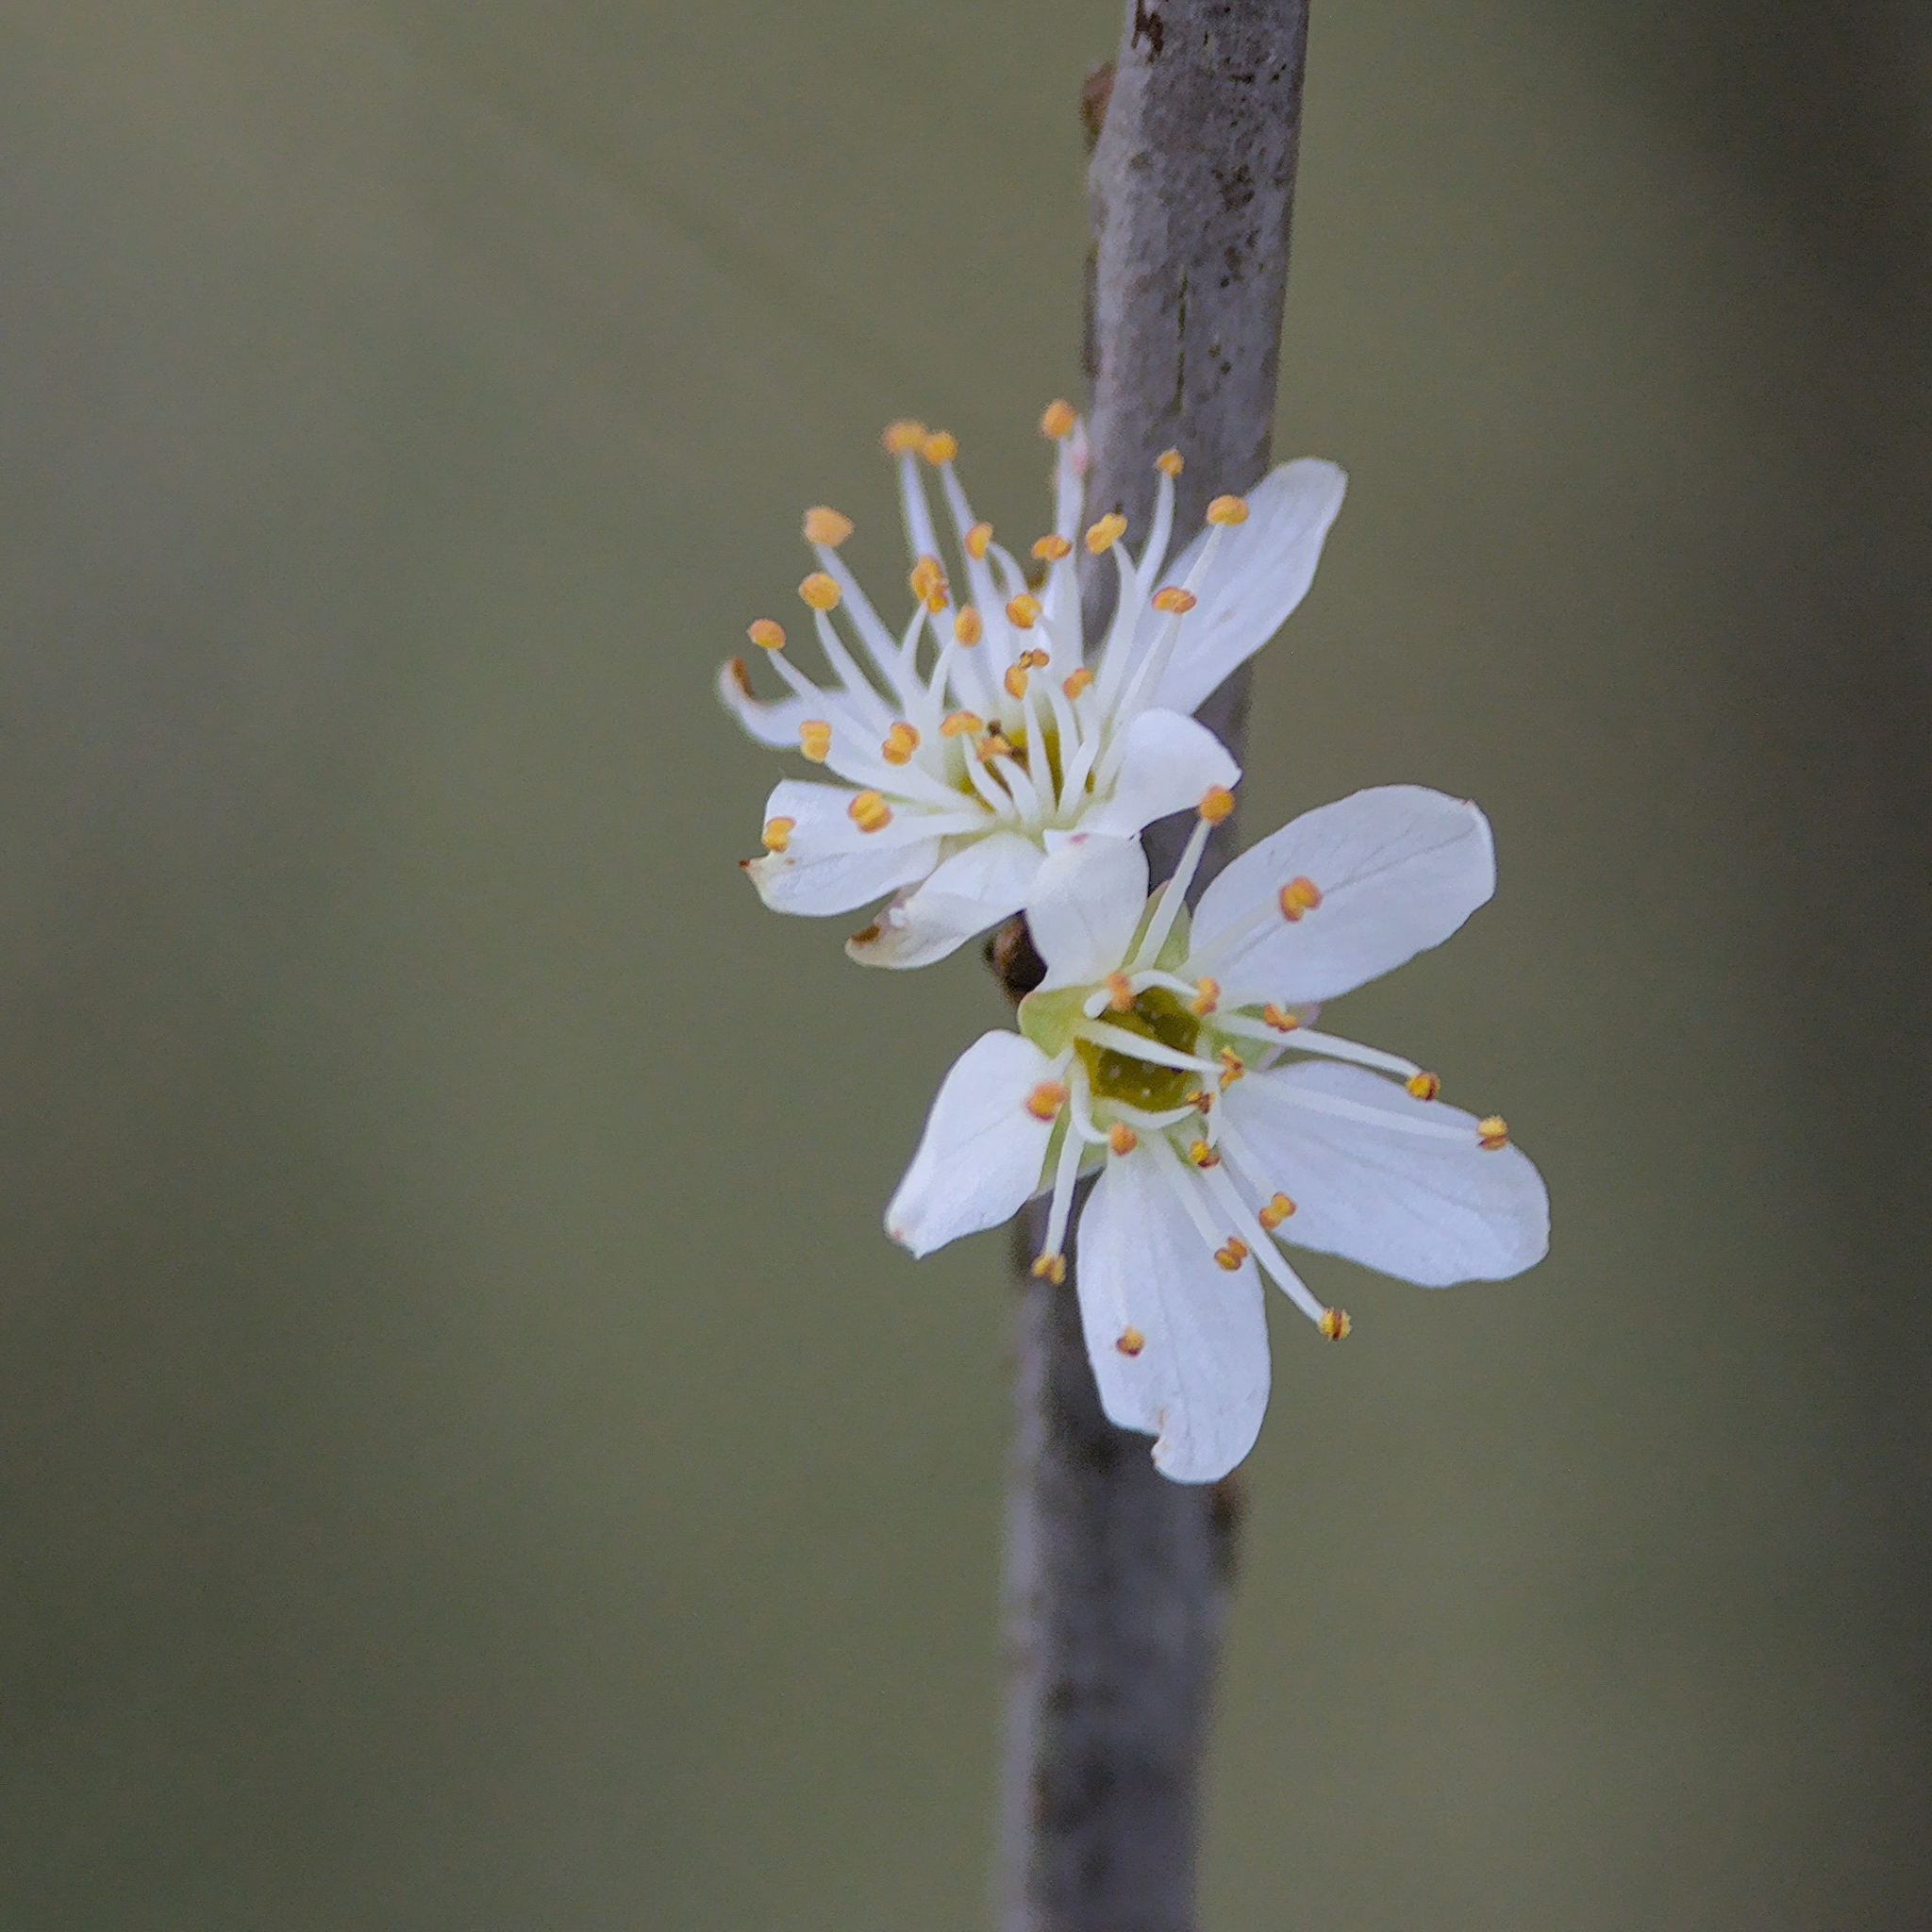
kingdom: Plantae
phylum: Tracheophyta
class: Magnoliopsida
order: Rosales
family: Rosaceae
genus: Prunus
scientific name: Prunus spinosa
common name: Blackthorn
